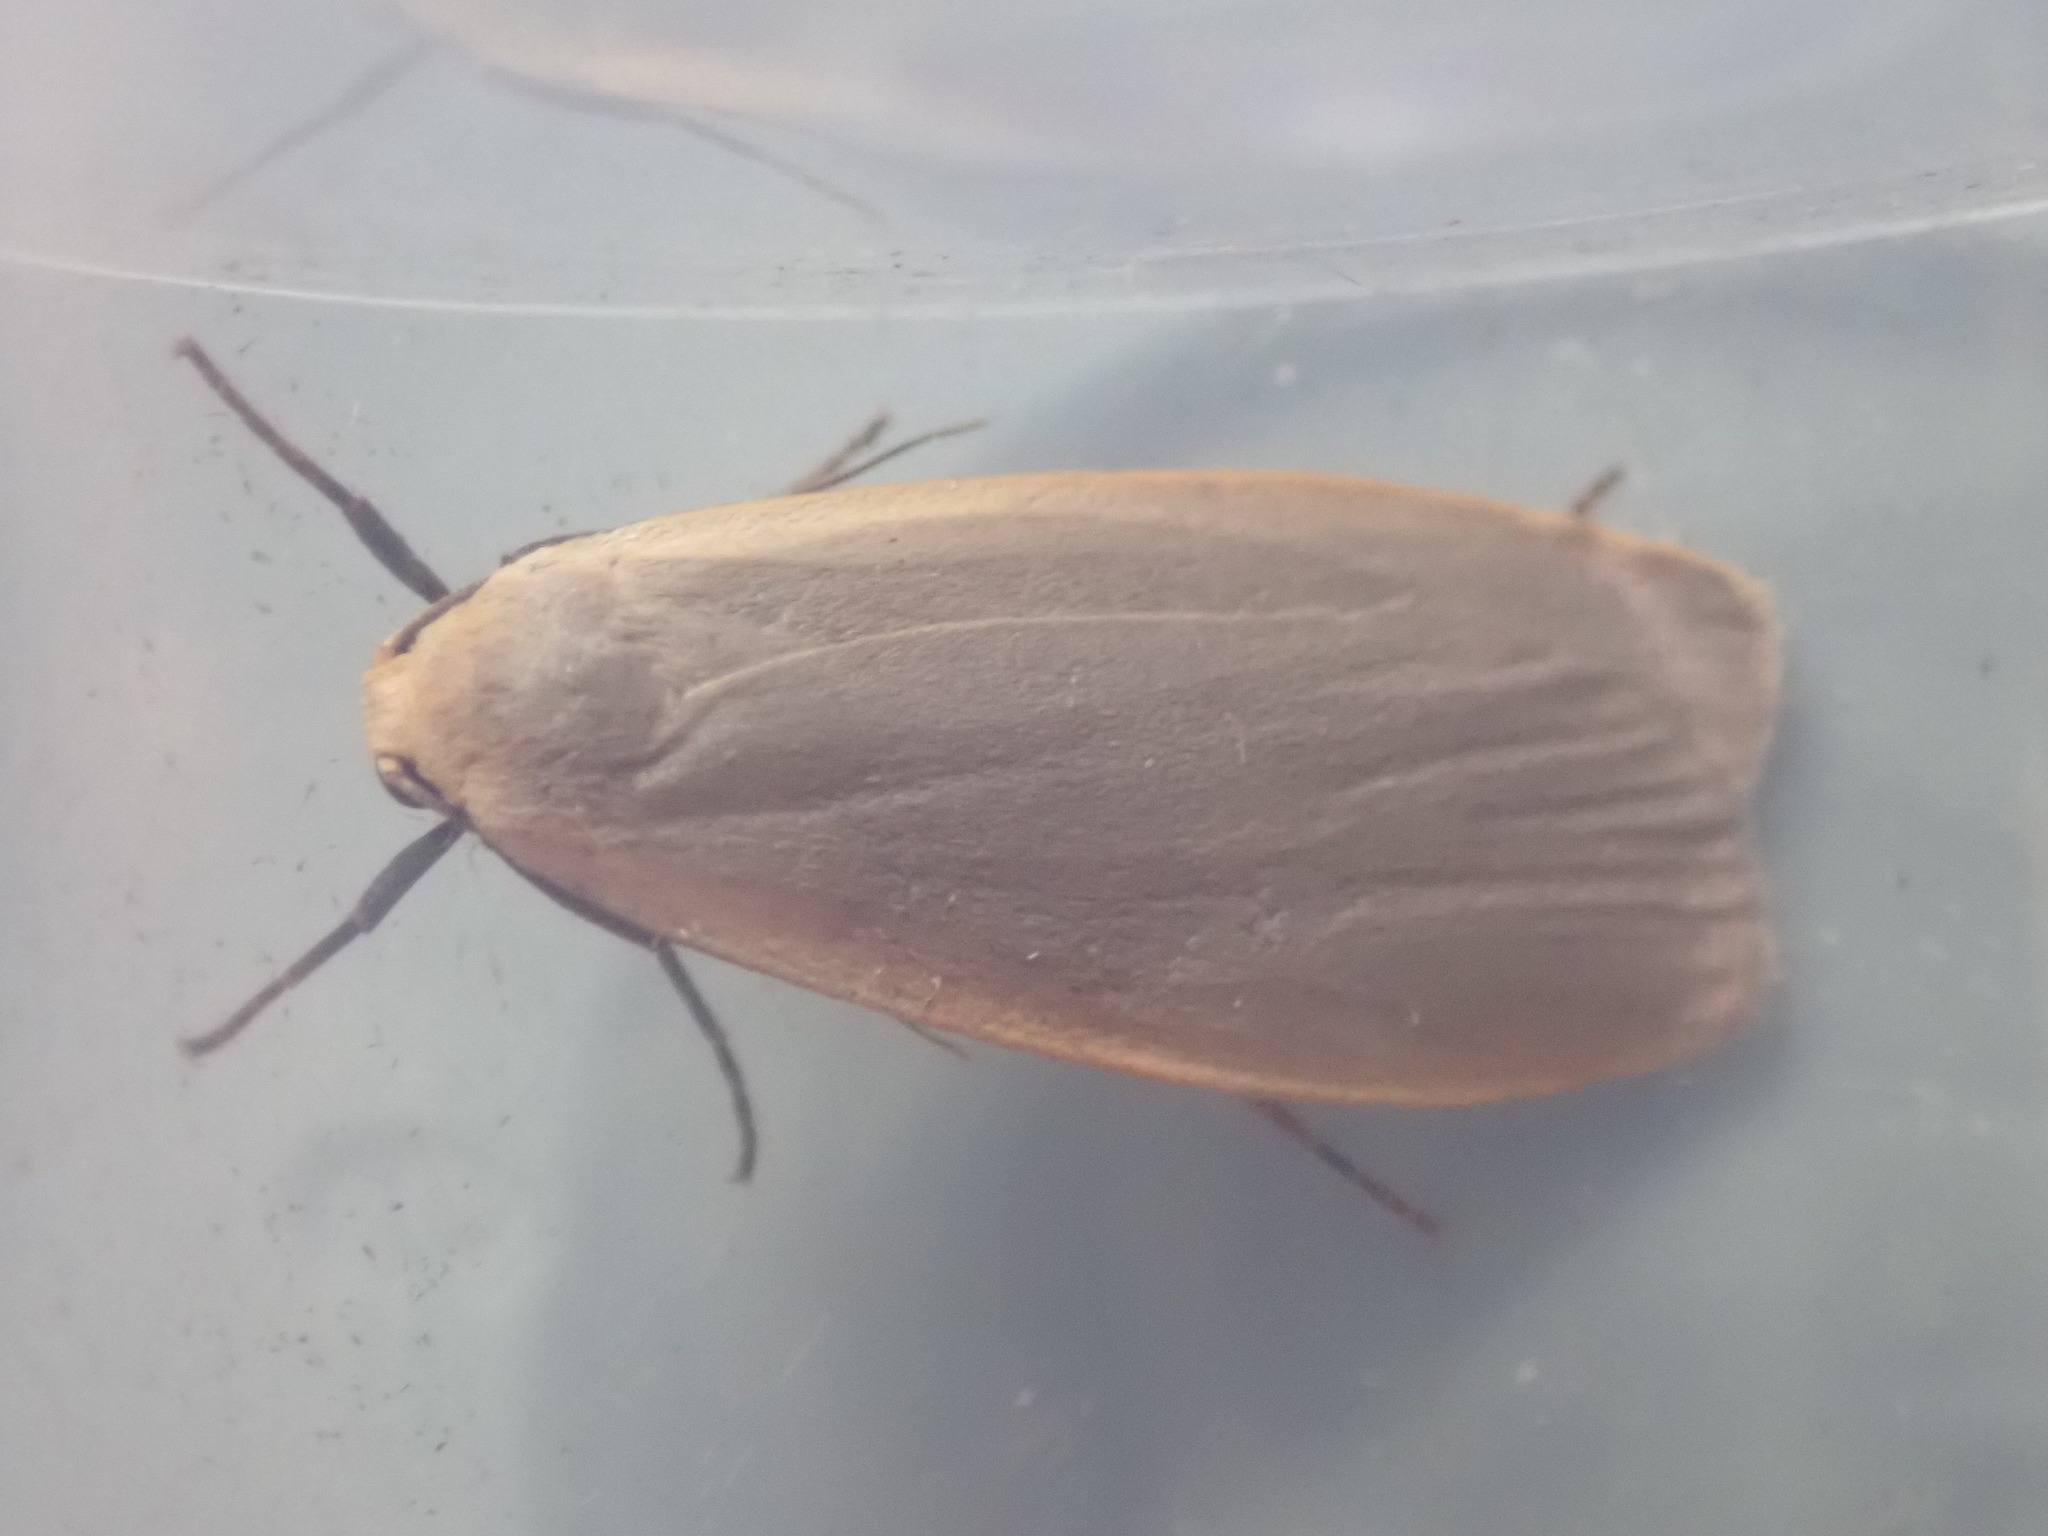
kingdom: Animalia
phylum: Arthropoda
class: Insecta
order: Lepidoptera
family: Erebidae
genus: Collita
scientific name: Collita griseola
